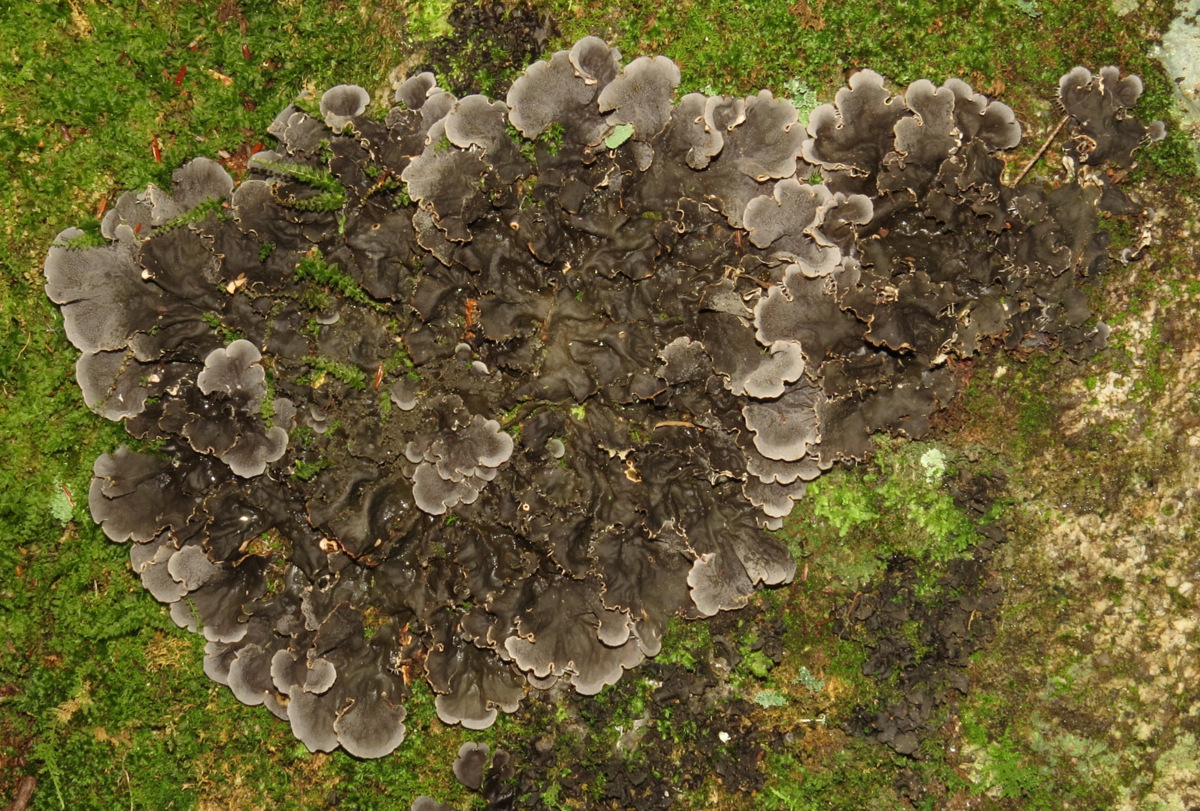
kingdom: Fungi
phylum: Ascomycota
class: Lecanoromycetes
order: Peltigerales
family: Peltigeraceae
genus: Peltigera
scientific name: Peltigera canina
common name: Dog pelt lichen
